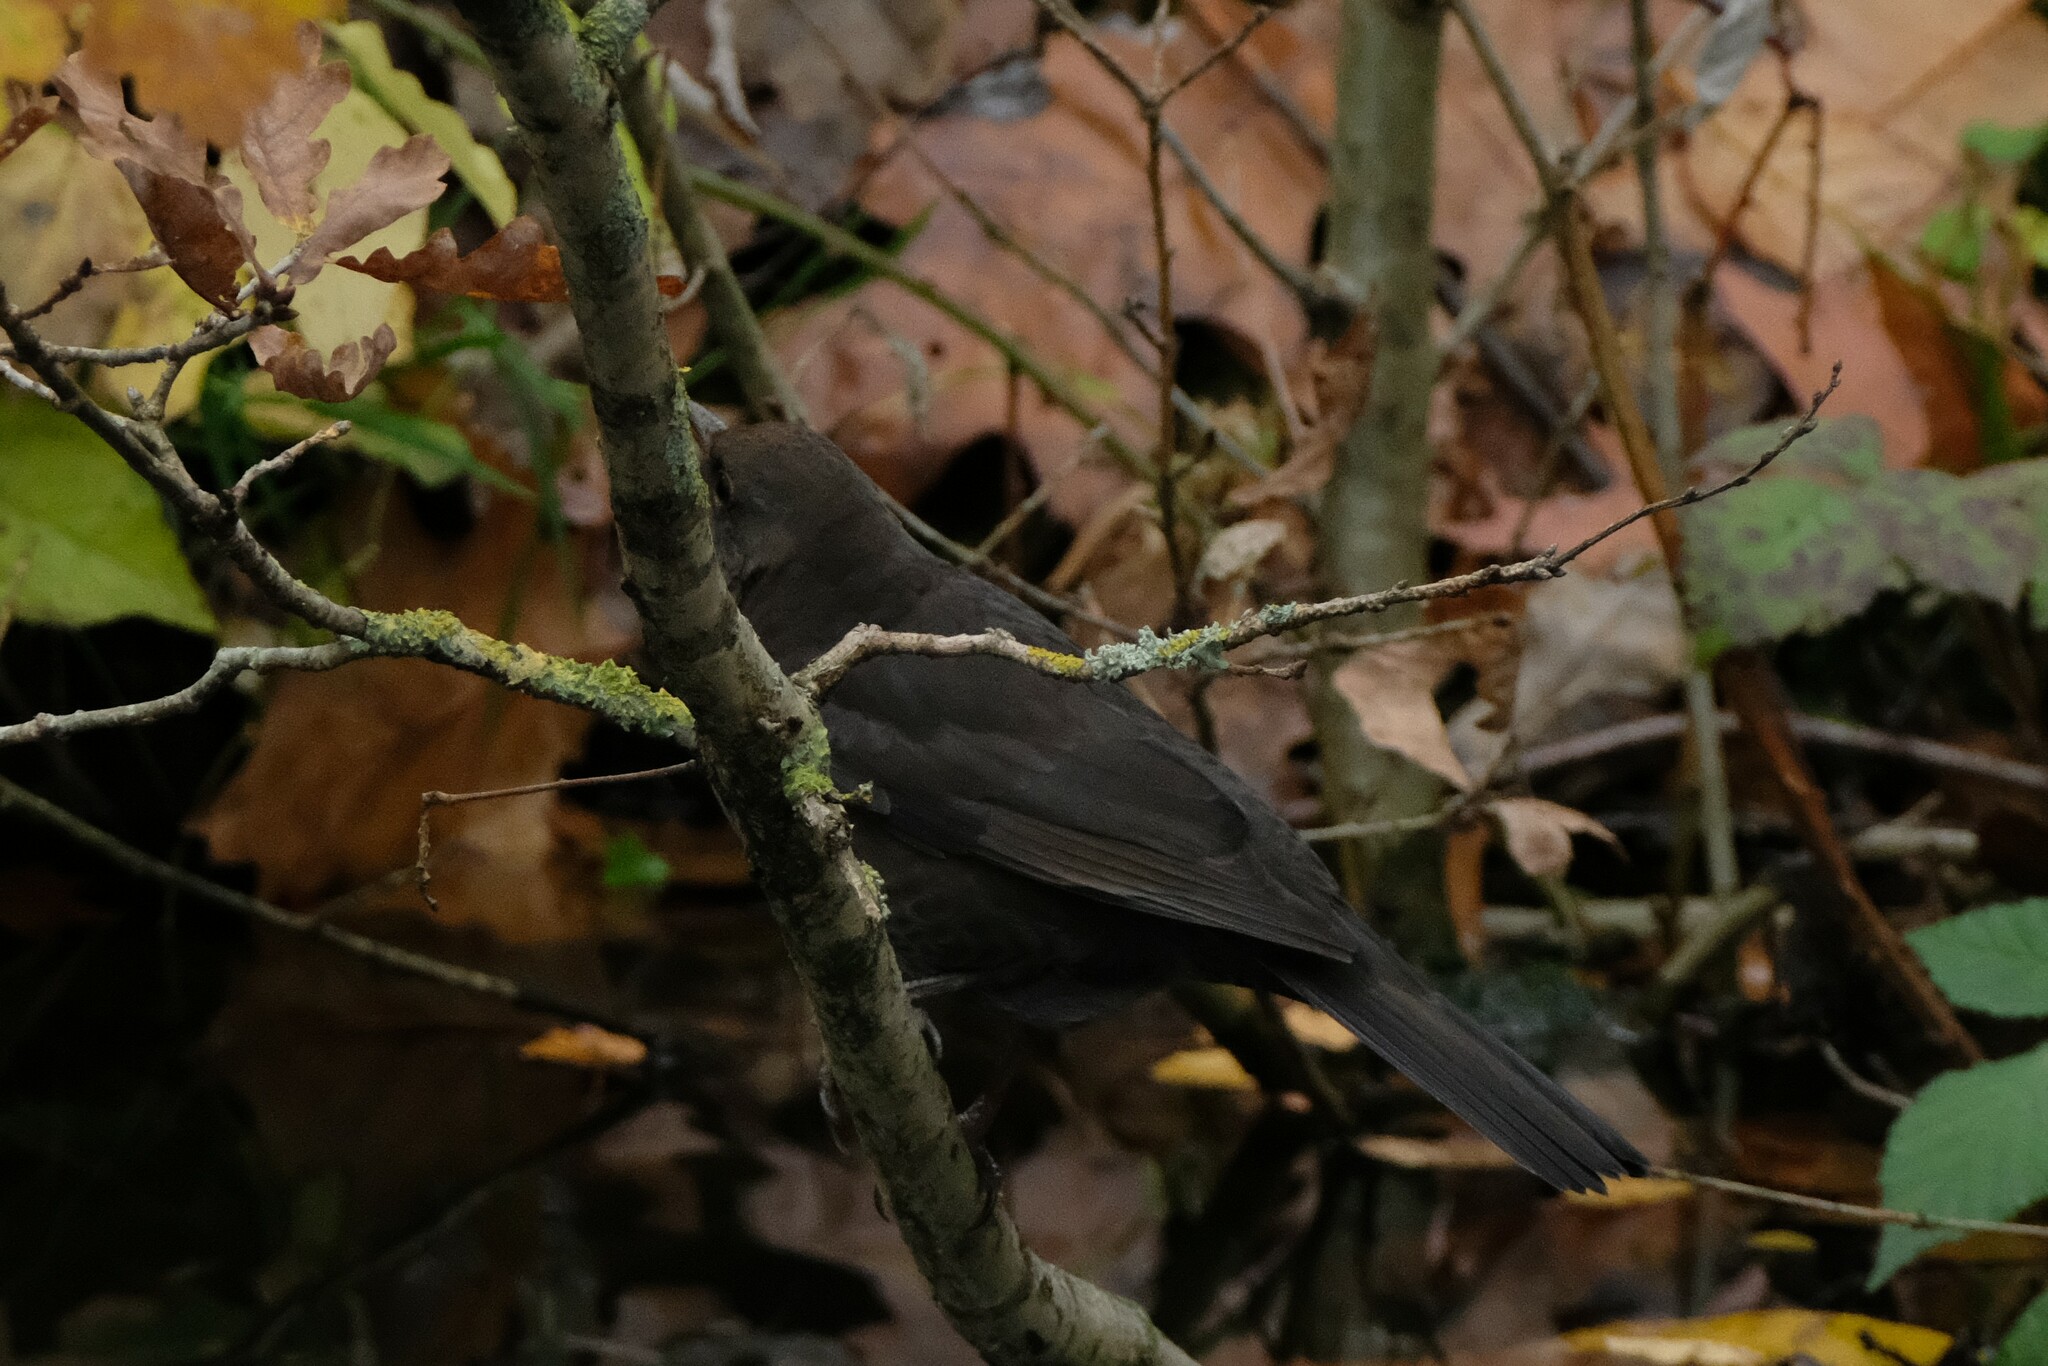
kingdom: Animalia
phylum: Chordata
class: Aves
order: Passeriformes
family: Turdidae
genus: Turdus
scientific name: Turdus merula
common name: Common blackbird
